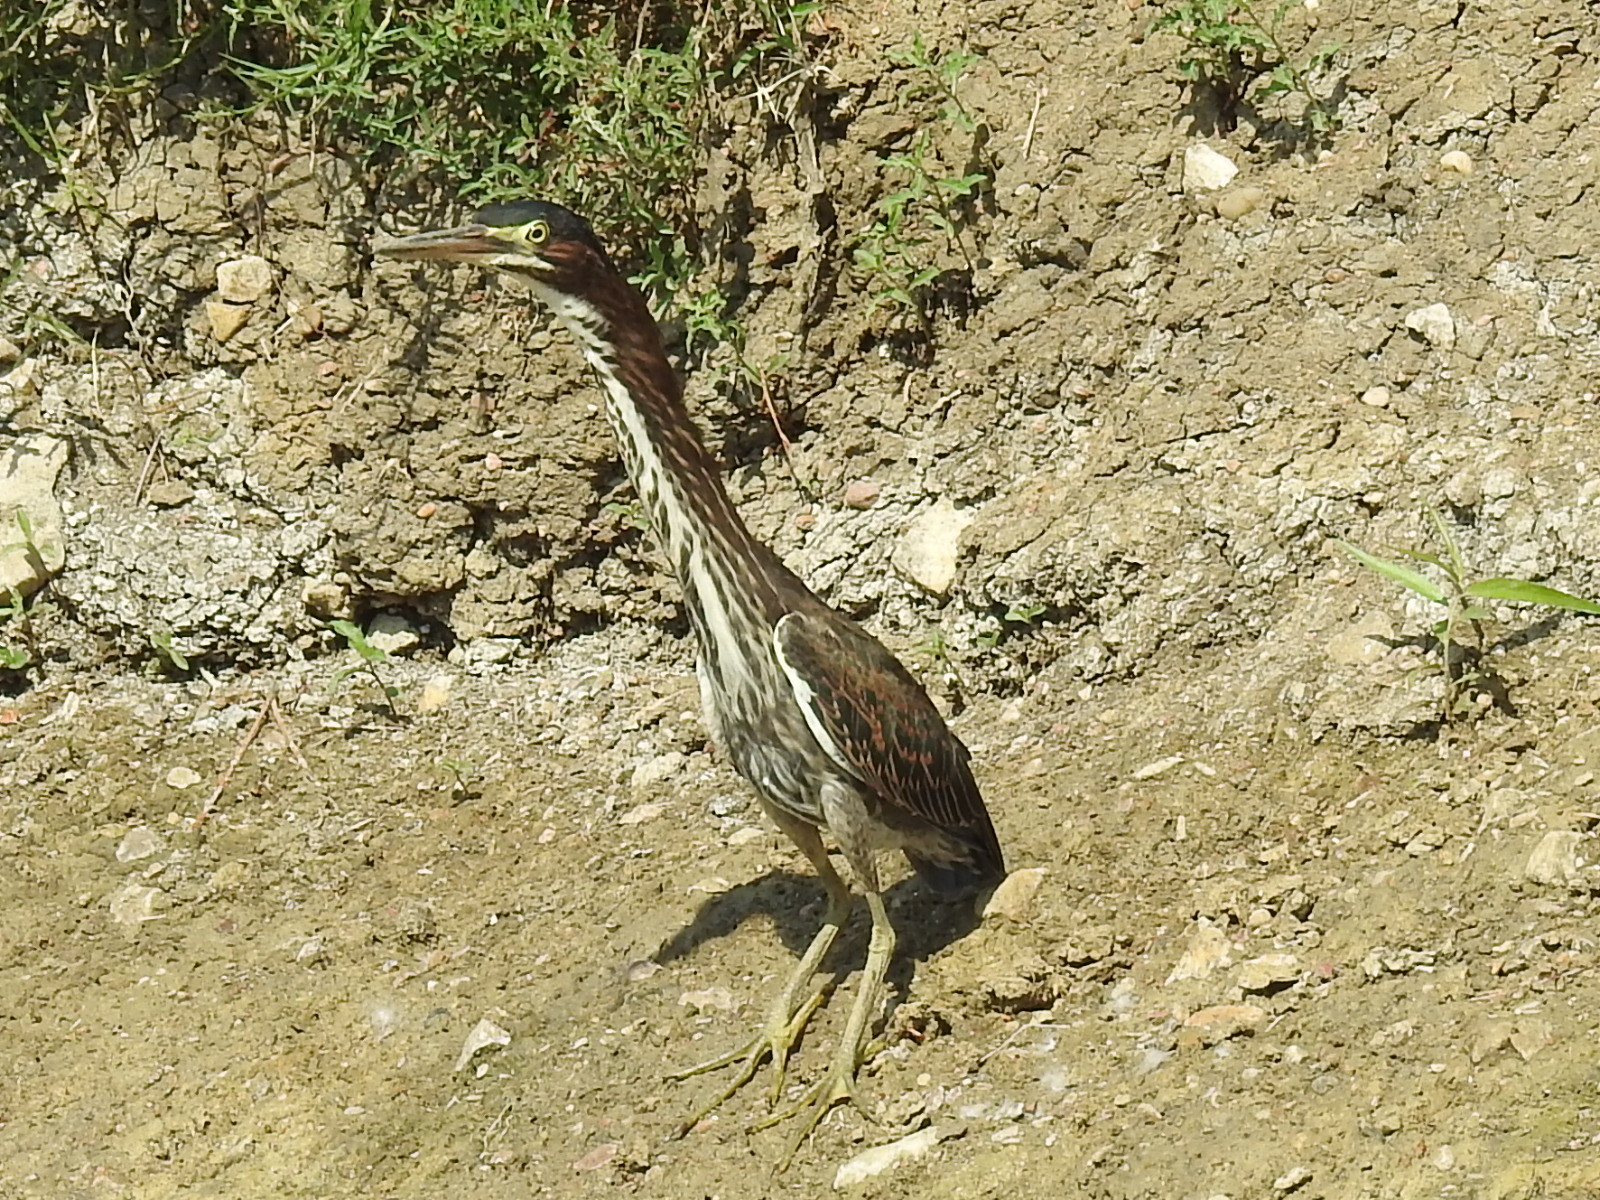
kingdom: Animalia
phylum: Chordata
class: Aves
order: Pelecaniformes
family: Ardeidae
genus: Butorides
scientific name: Butorides virescens
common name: Green heron
